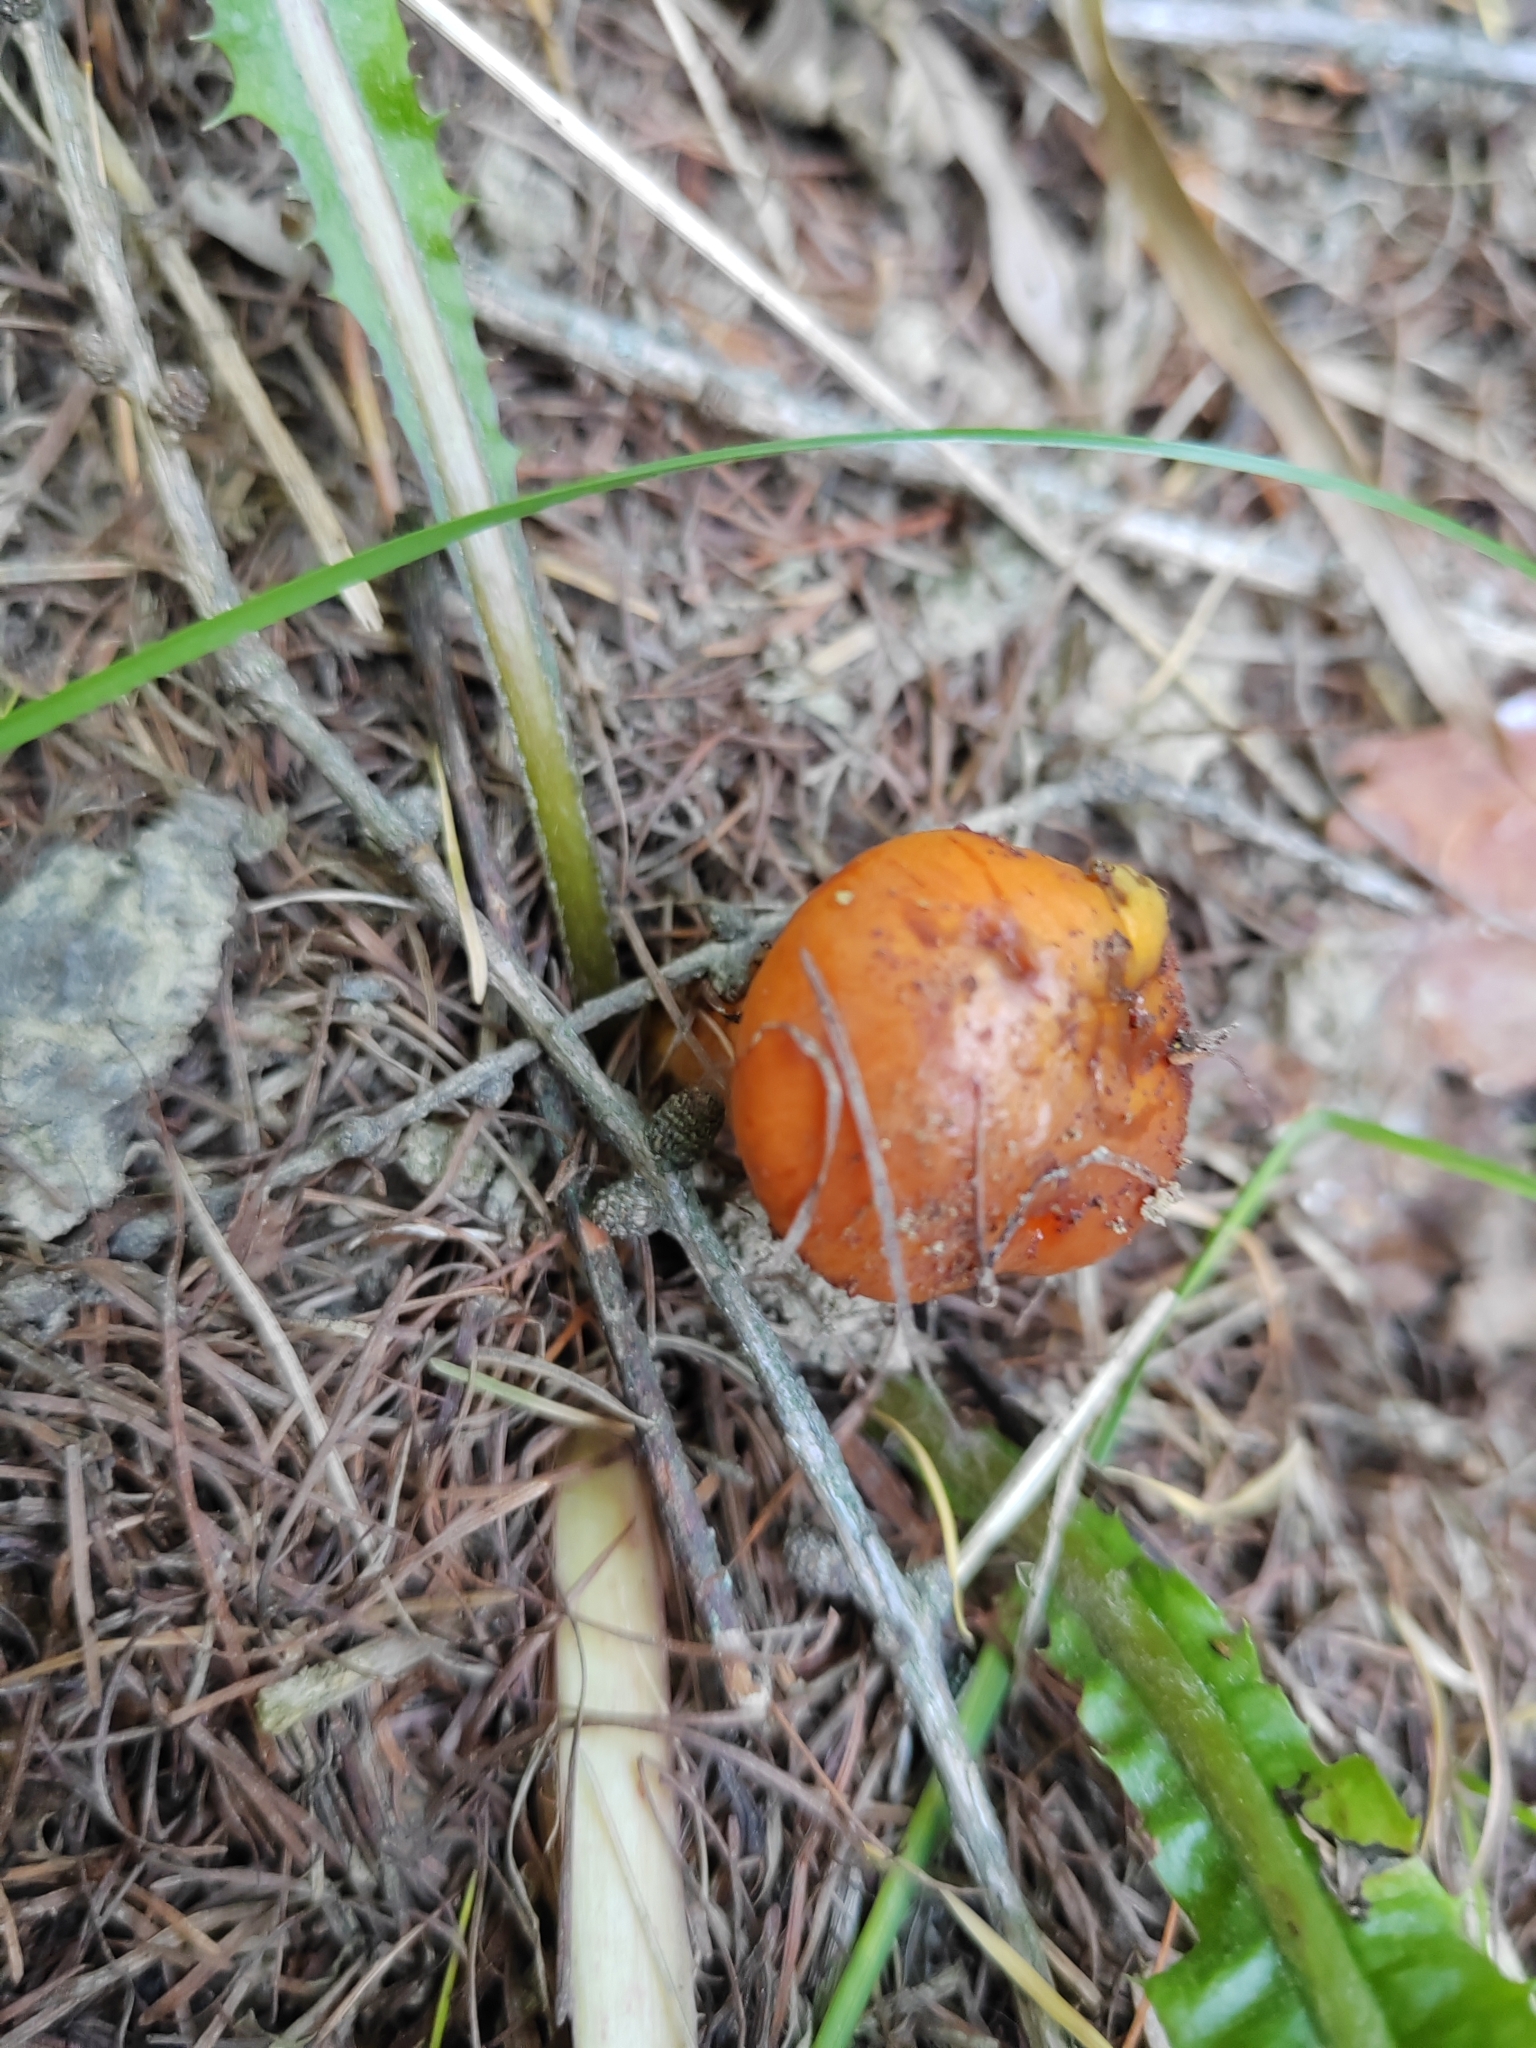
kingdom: Fungi
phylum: Basidiomycota
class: Agaricomycetes
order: Boletales
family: Suillaceae
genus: Suillus
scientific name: Suillus grevillei
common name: Larch bolete
